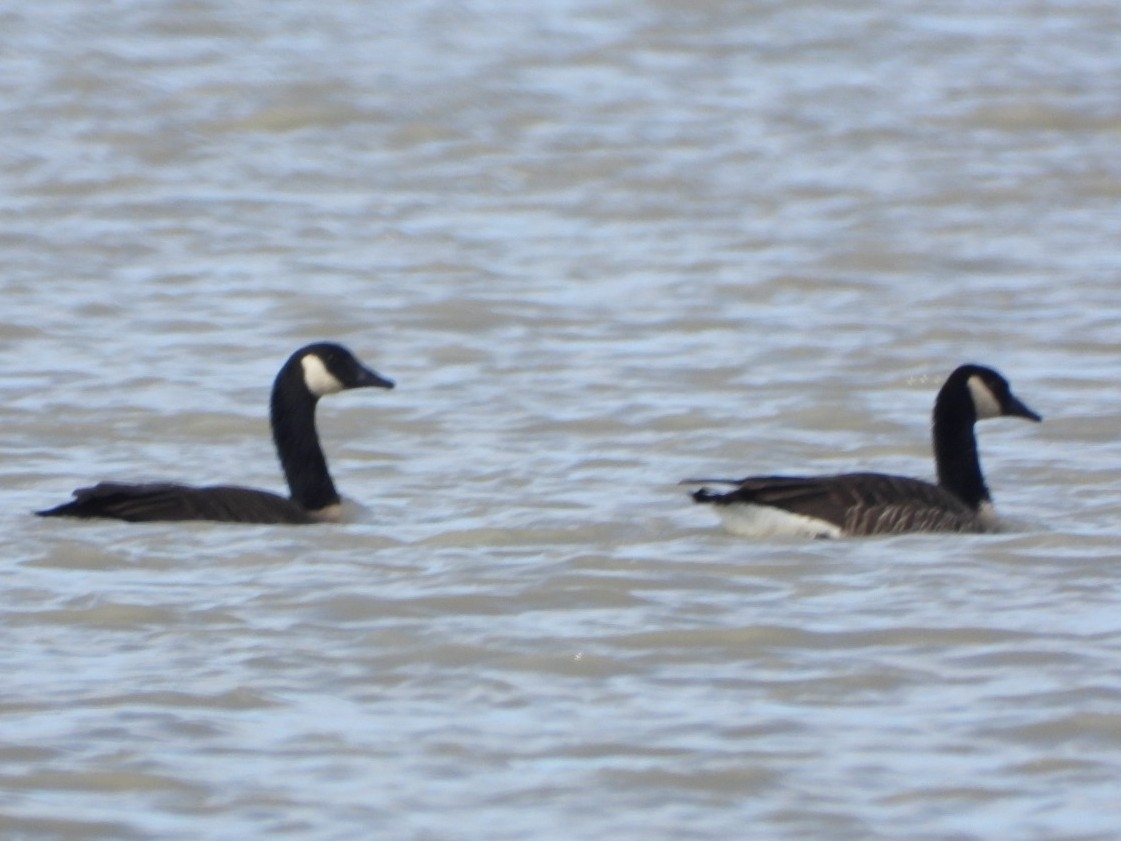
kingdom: Animalia
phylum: Chordata
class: Aves
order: Anseriformes
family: Anatidae
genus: Branta
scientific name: Branta canadensis
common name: Canada goose
